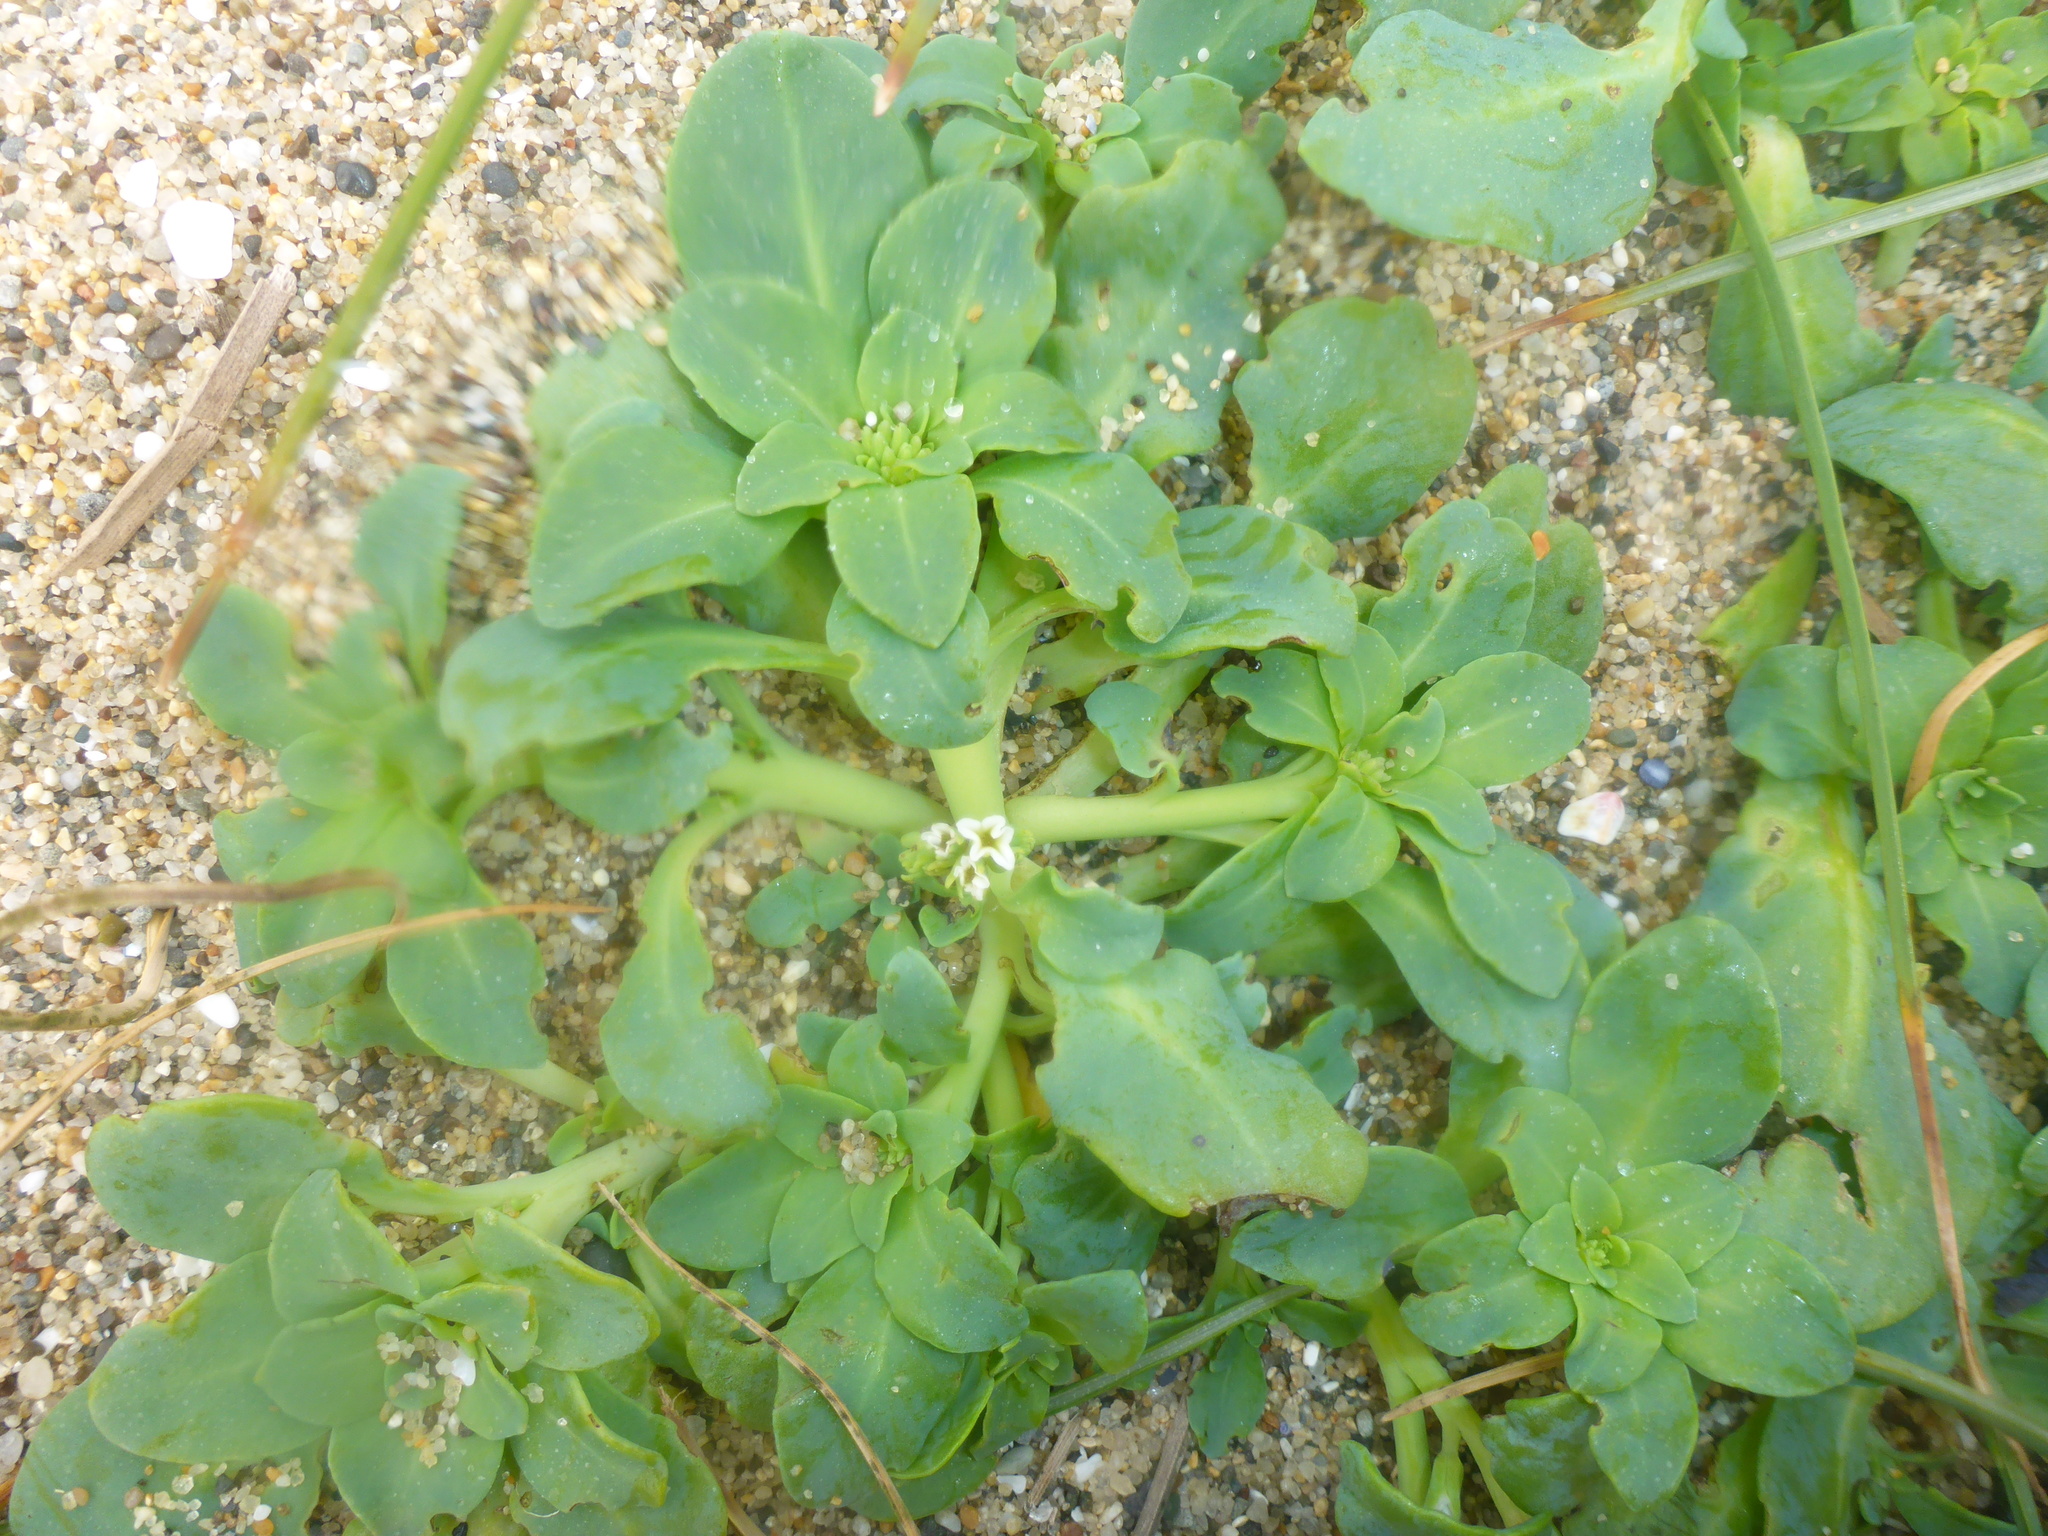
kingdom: Plantae
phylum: Tracheophyta
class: Magnoliopsida
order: Boraginales
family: Heliotropiaceae
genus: Heliotropium
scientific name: Heliotropium curassavicum
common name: Seaside heliotrope
